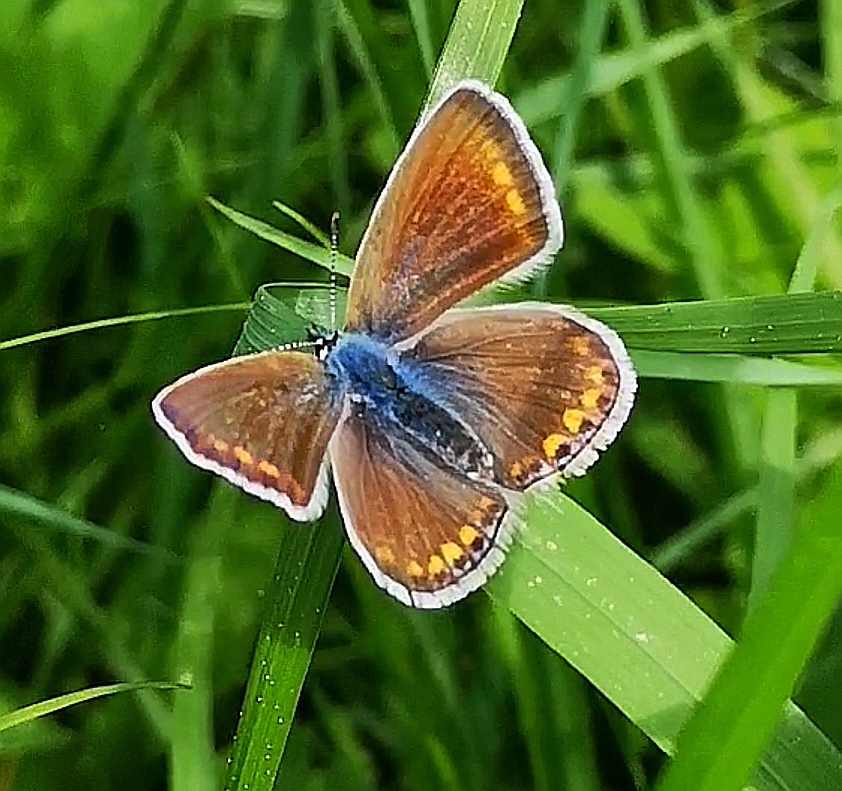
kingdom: Animalia
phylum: Arthropoda
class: Insecta
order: Lepidoptera
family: Lycaenidae
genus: Polyommatus
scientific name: Polyommatus icarus
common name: Common blue
